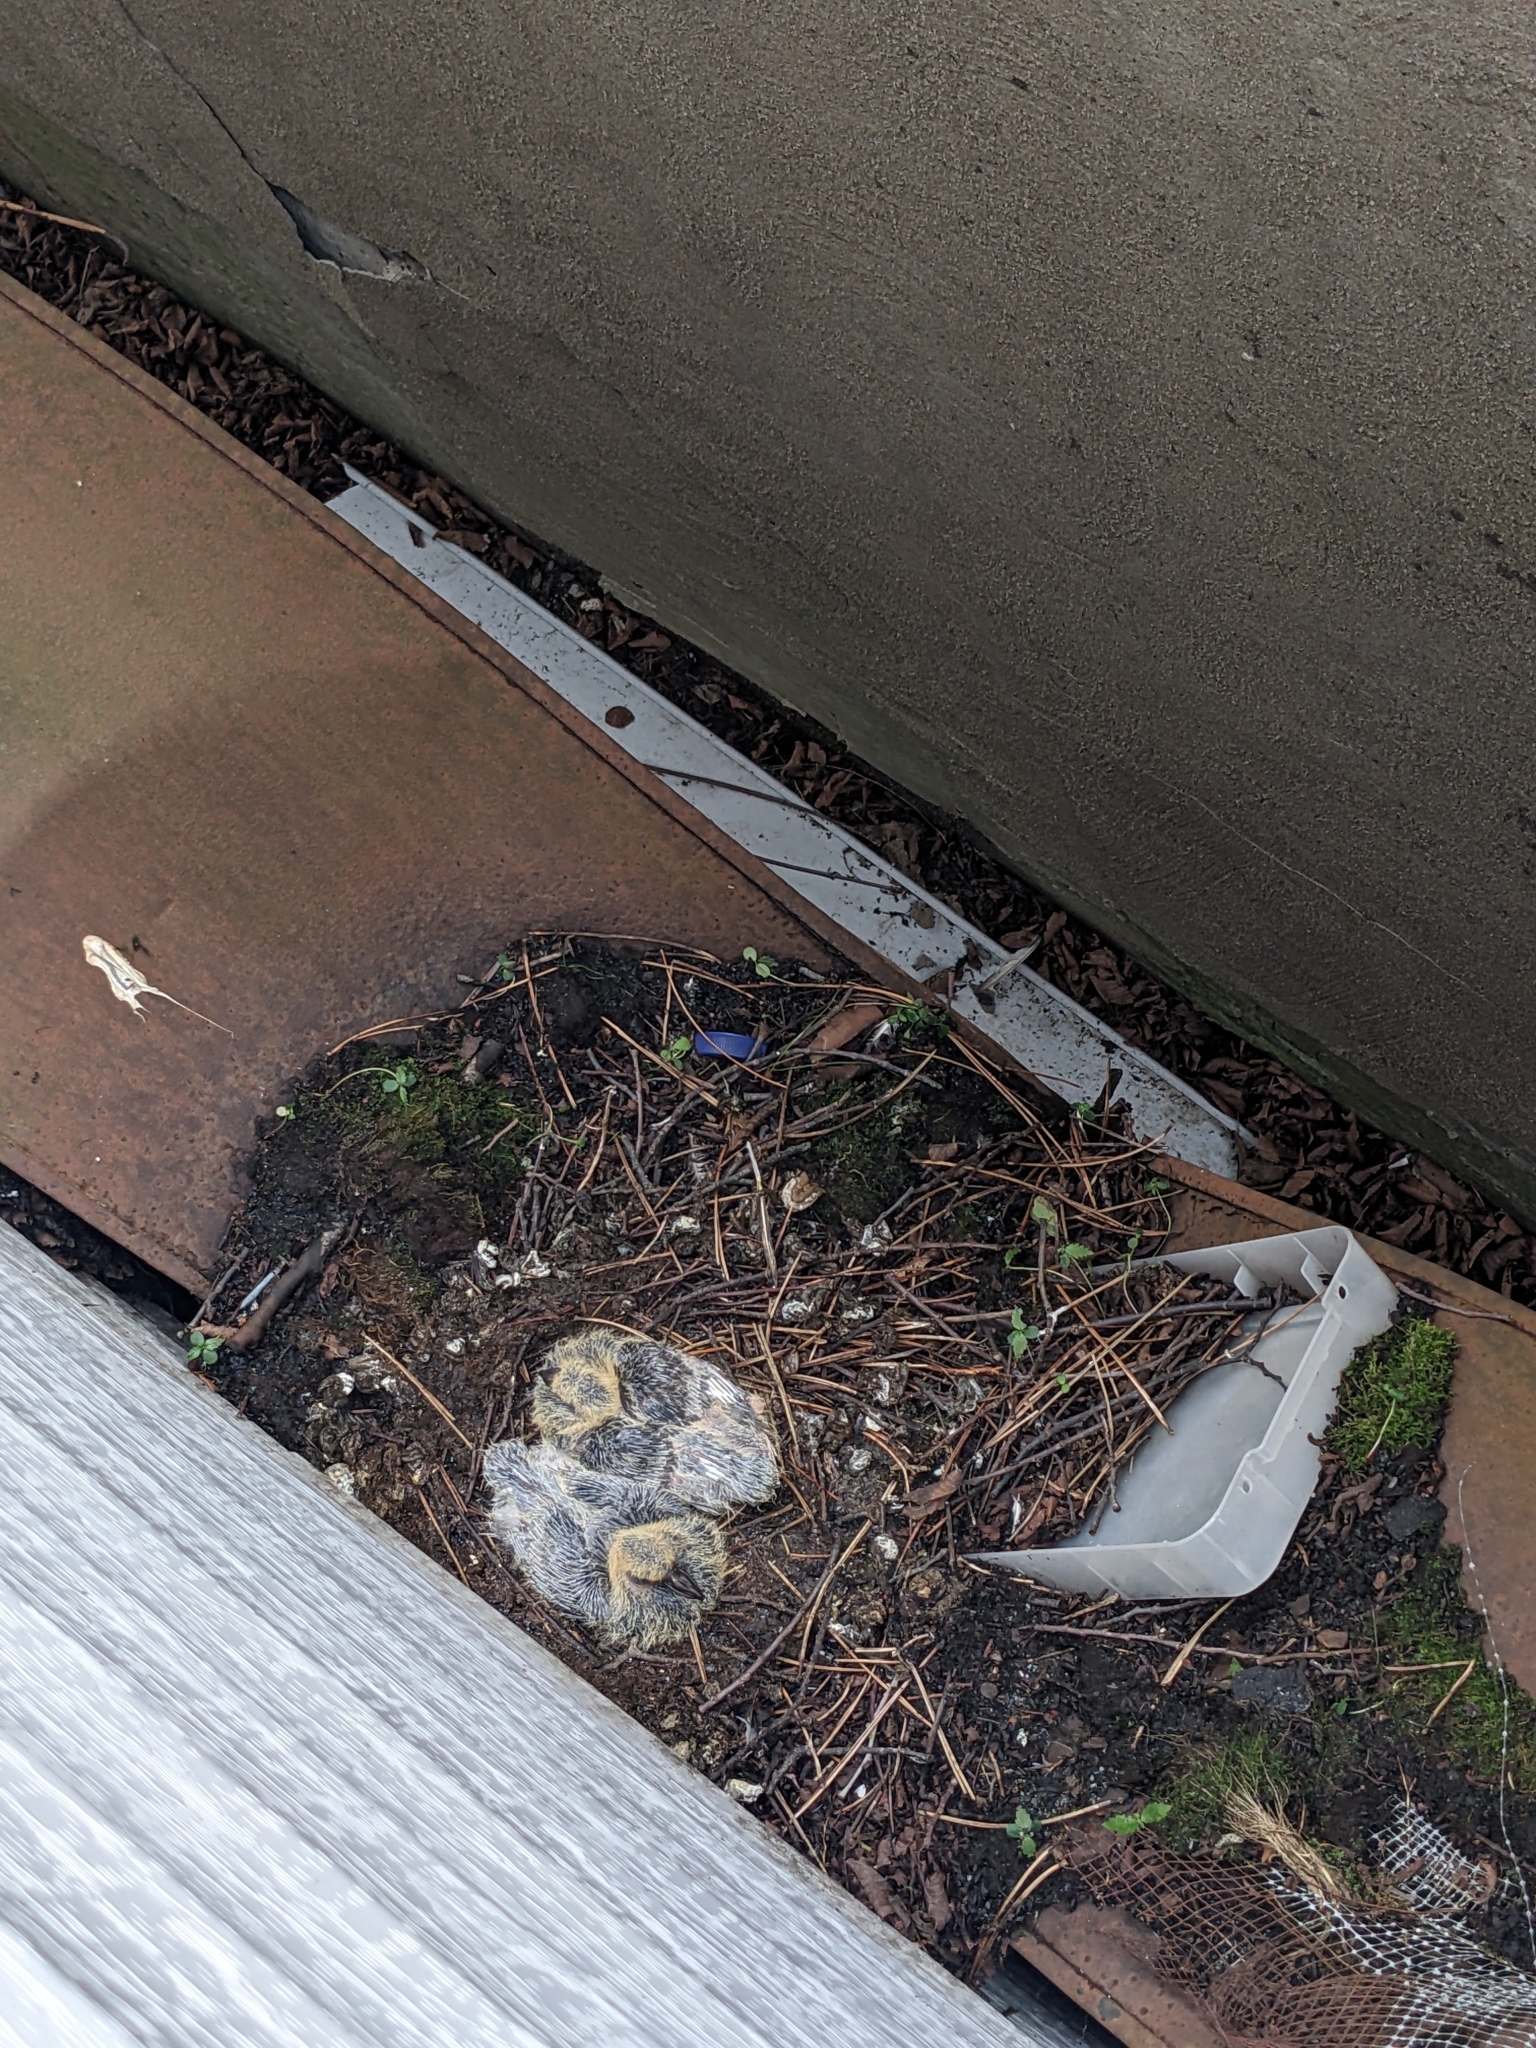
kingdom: Animalia
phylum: Chordata
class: Aves
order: Columbiformes
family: Columbidae
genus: Columba
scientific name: Columba livia
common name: Rock pigeon
